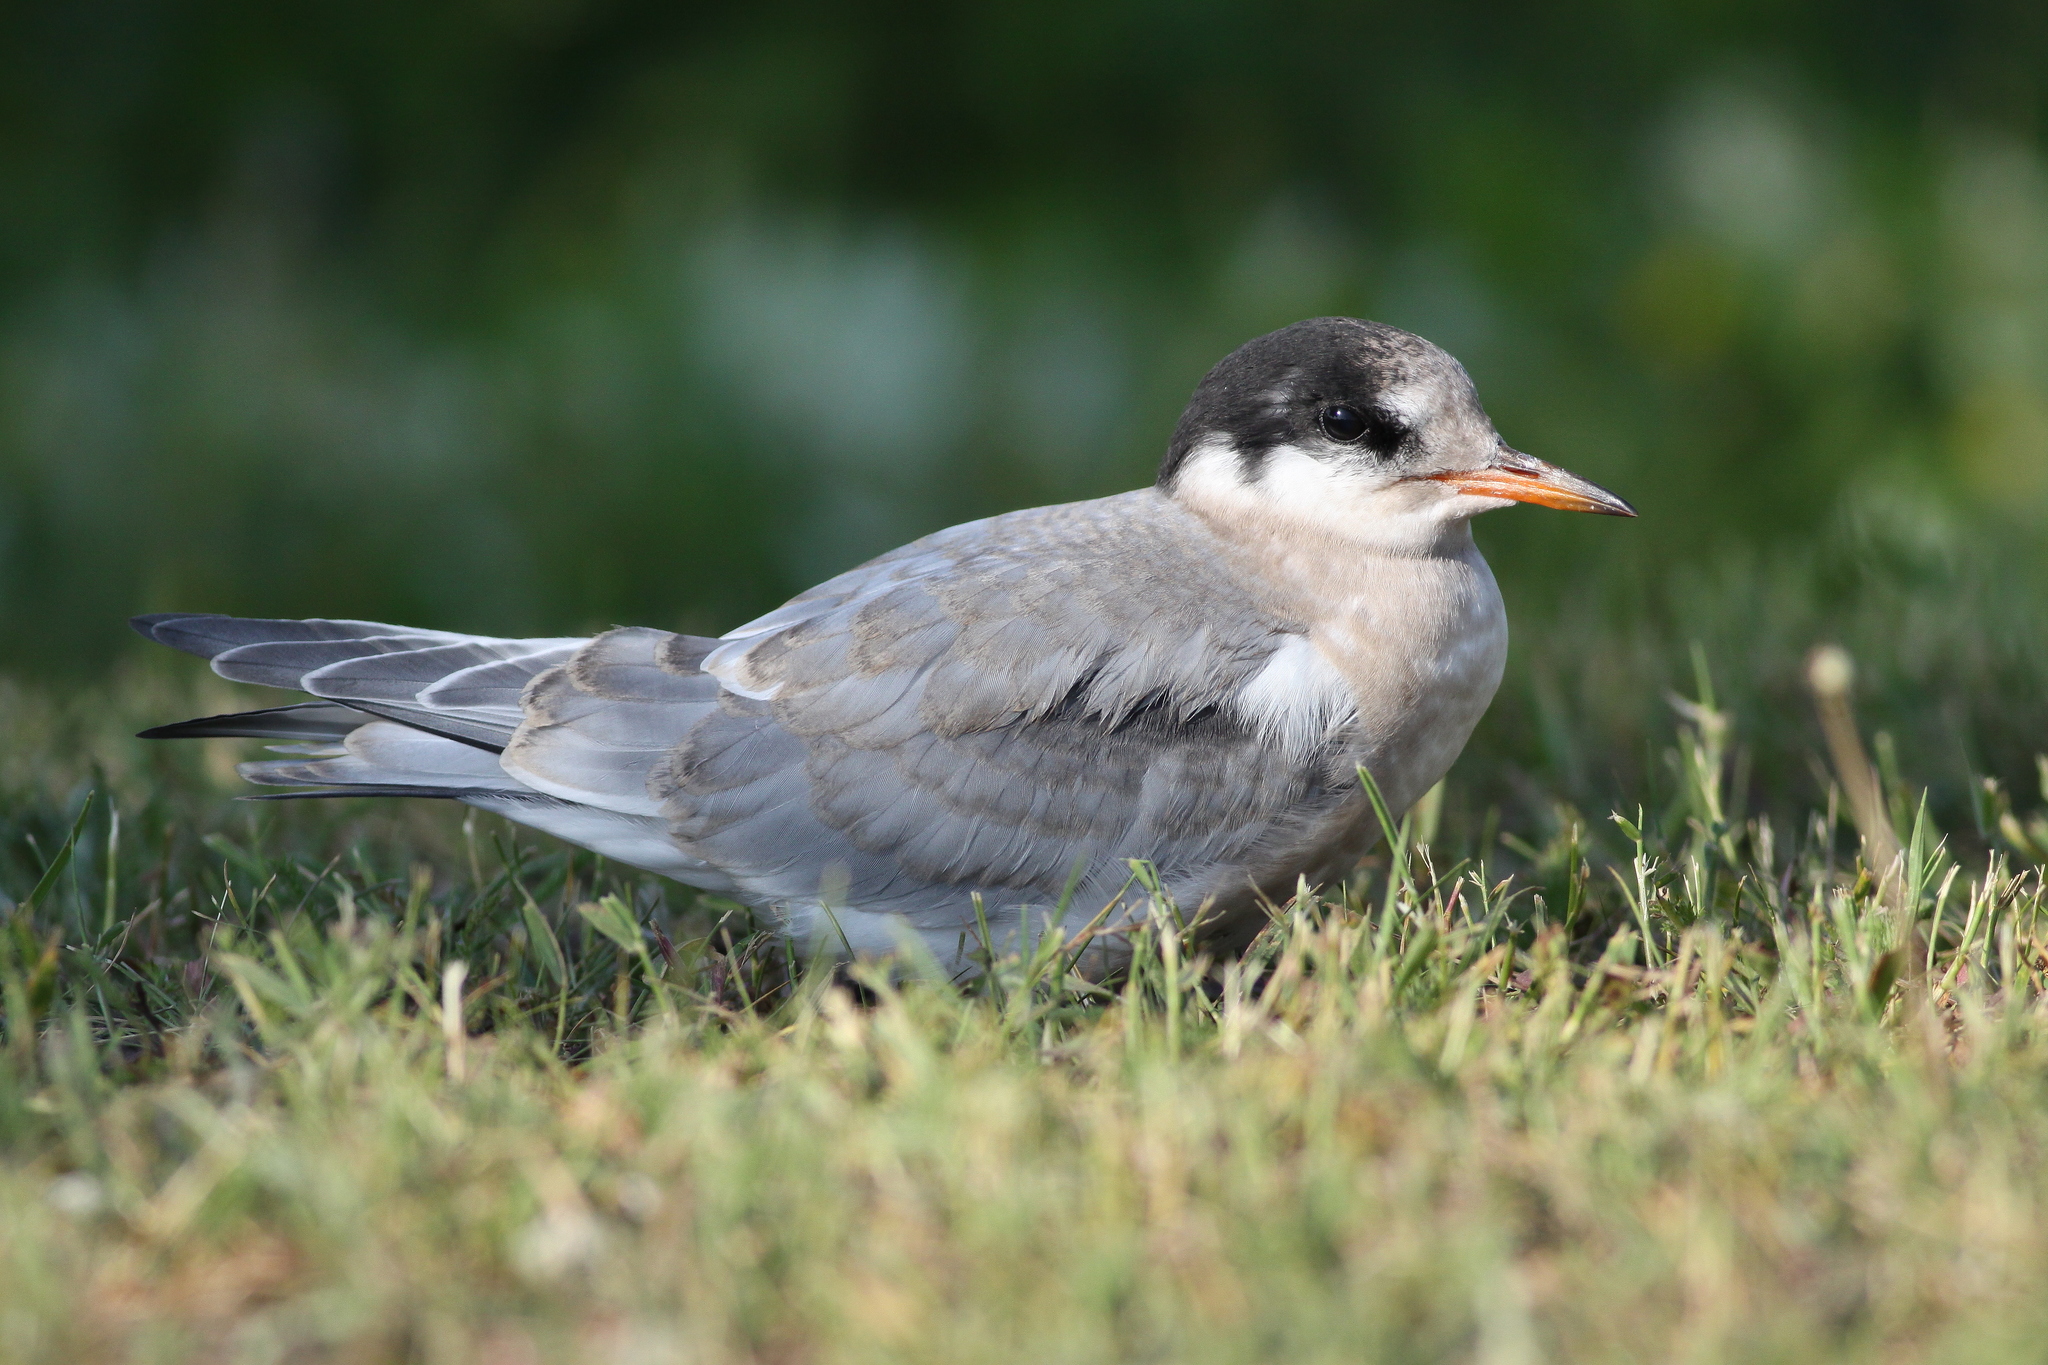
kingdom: Animalia
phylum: Chordata
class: Aves
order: Charadriiformes
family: Laridae
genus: Sterna
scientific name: Sterna paradisaea
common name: Arctic tern
